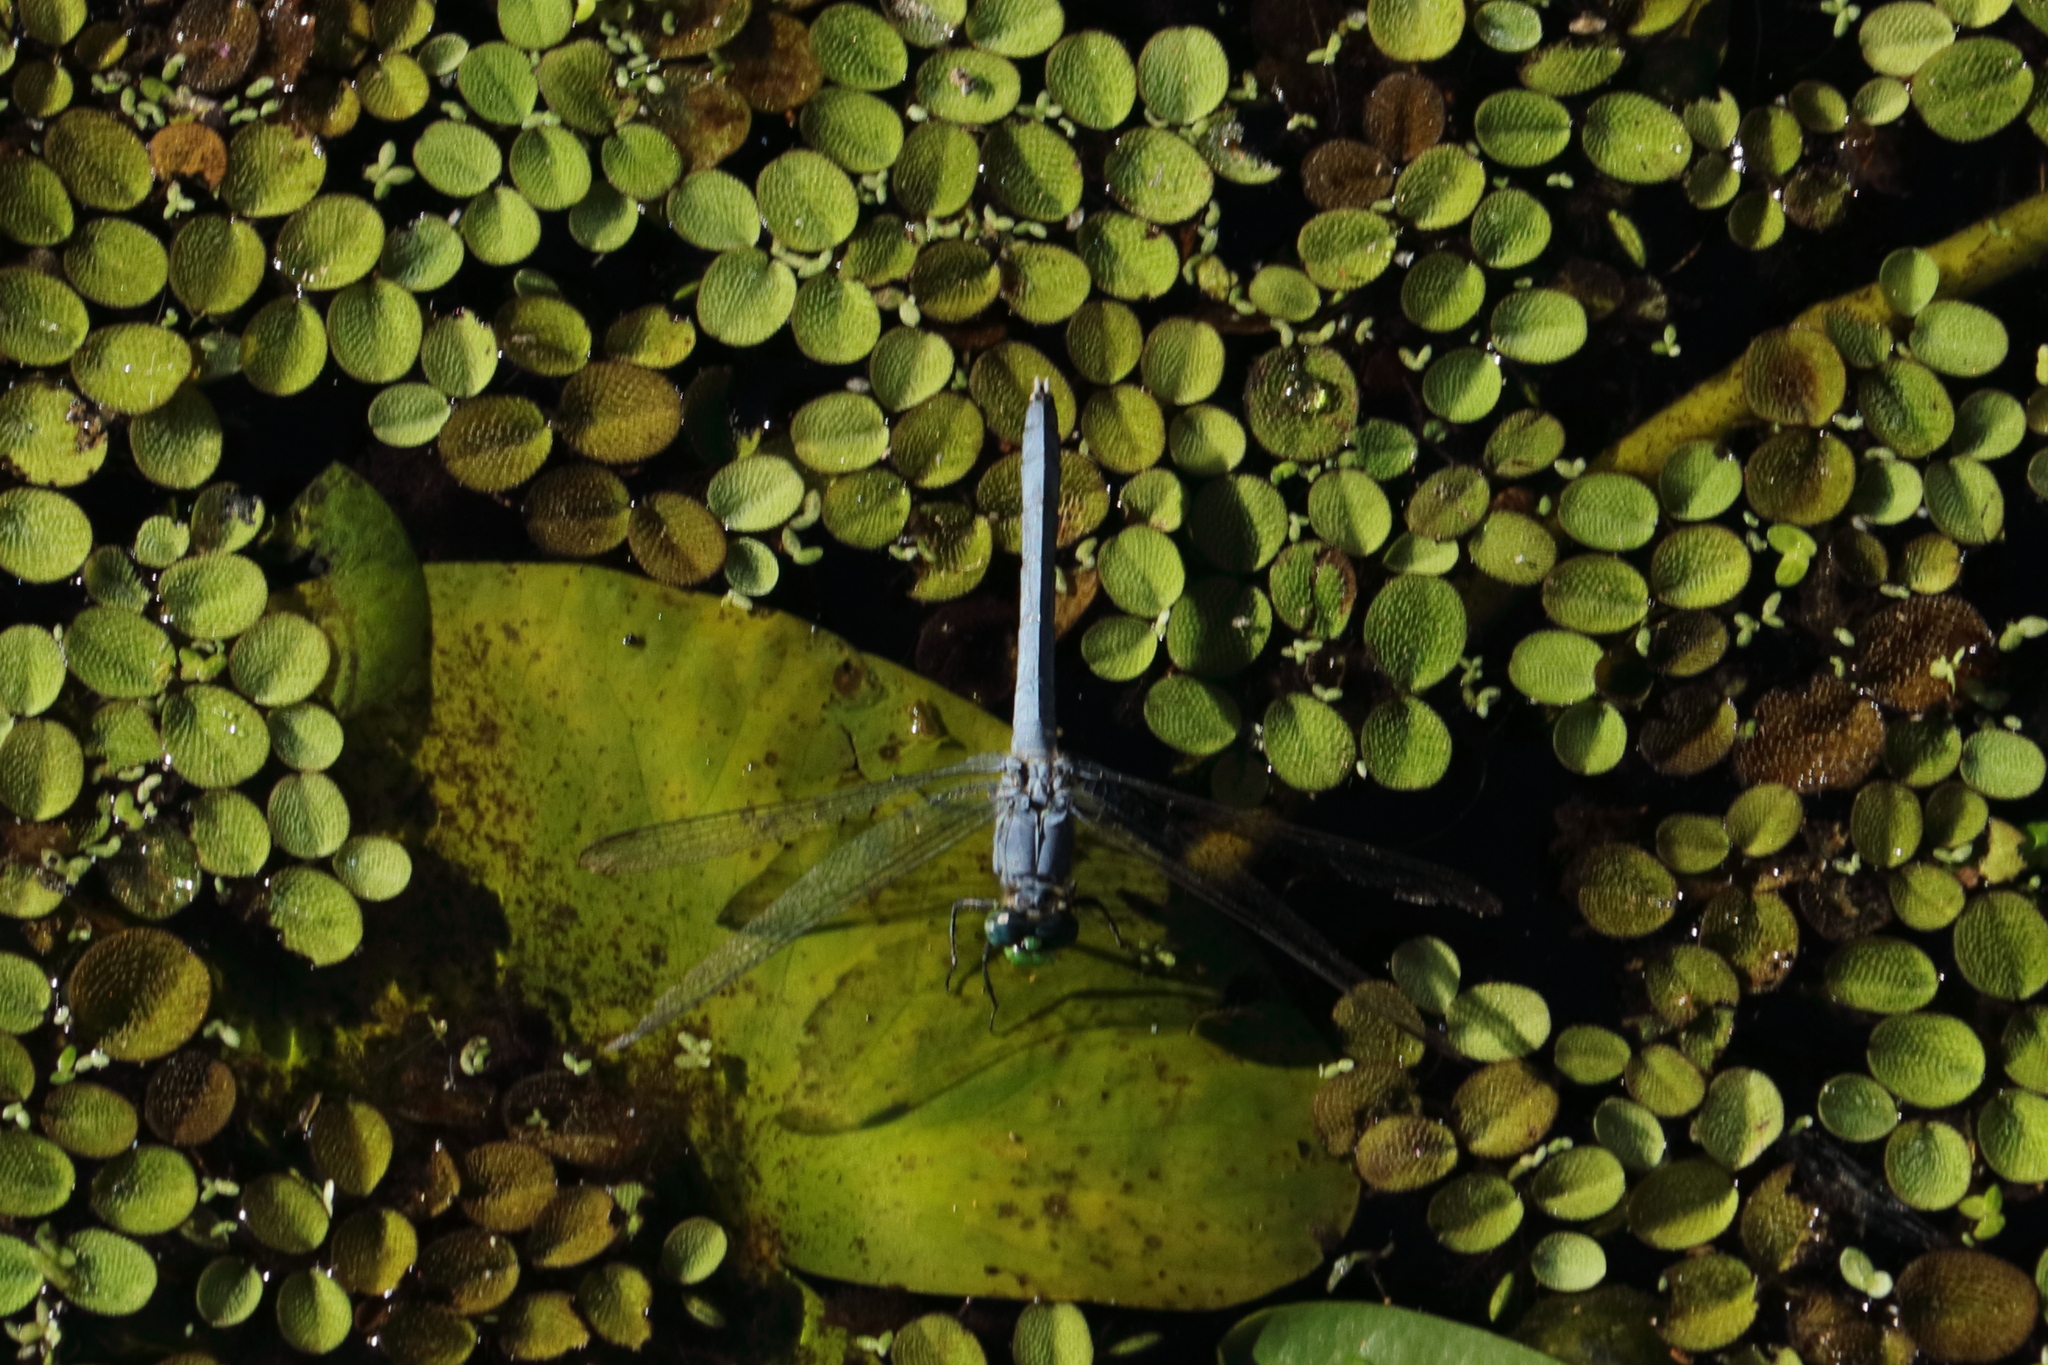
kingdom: Animalia
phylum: Arthropoda
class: Insecta
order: Odonata
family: Libellulidae
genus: Erythemis
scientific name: Erythemis simplicicollis
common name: Eastern pondhawk
